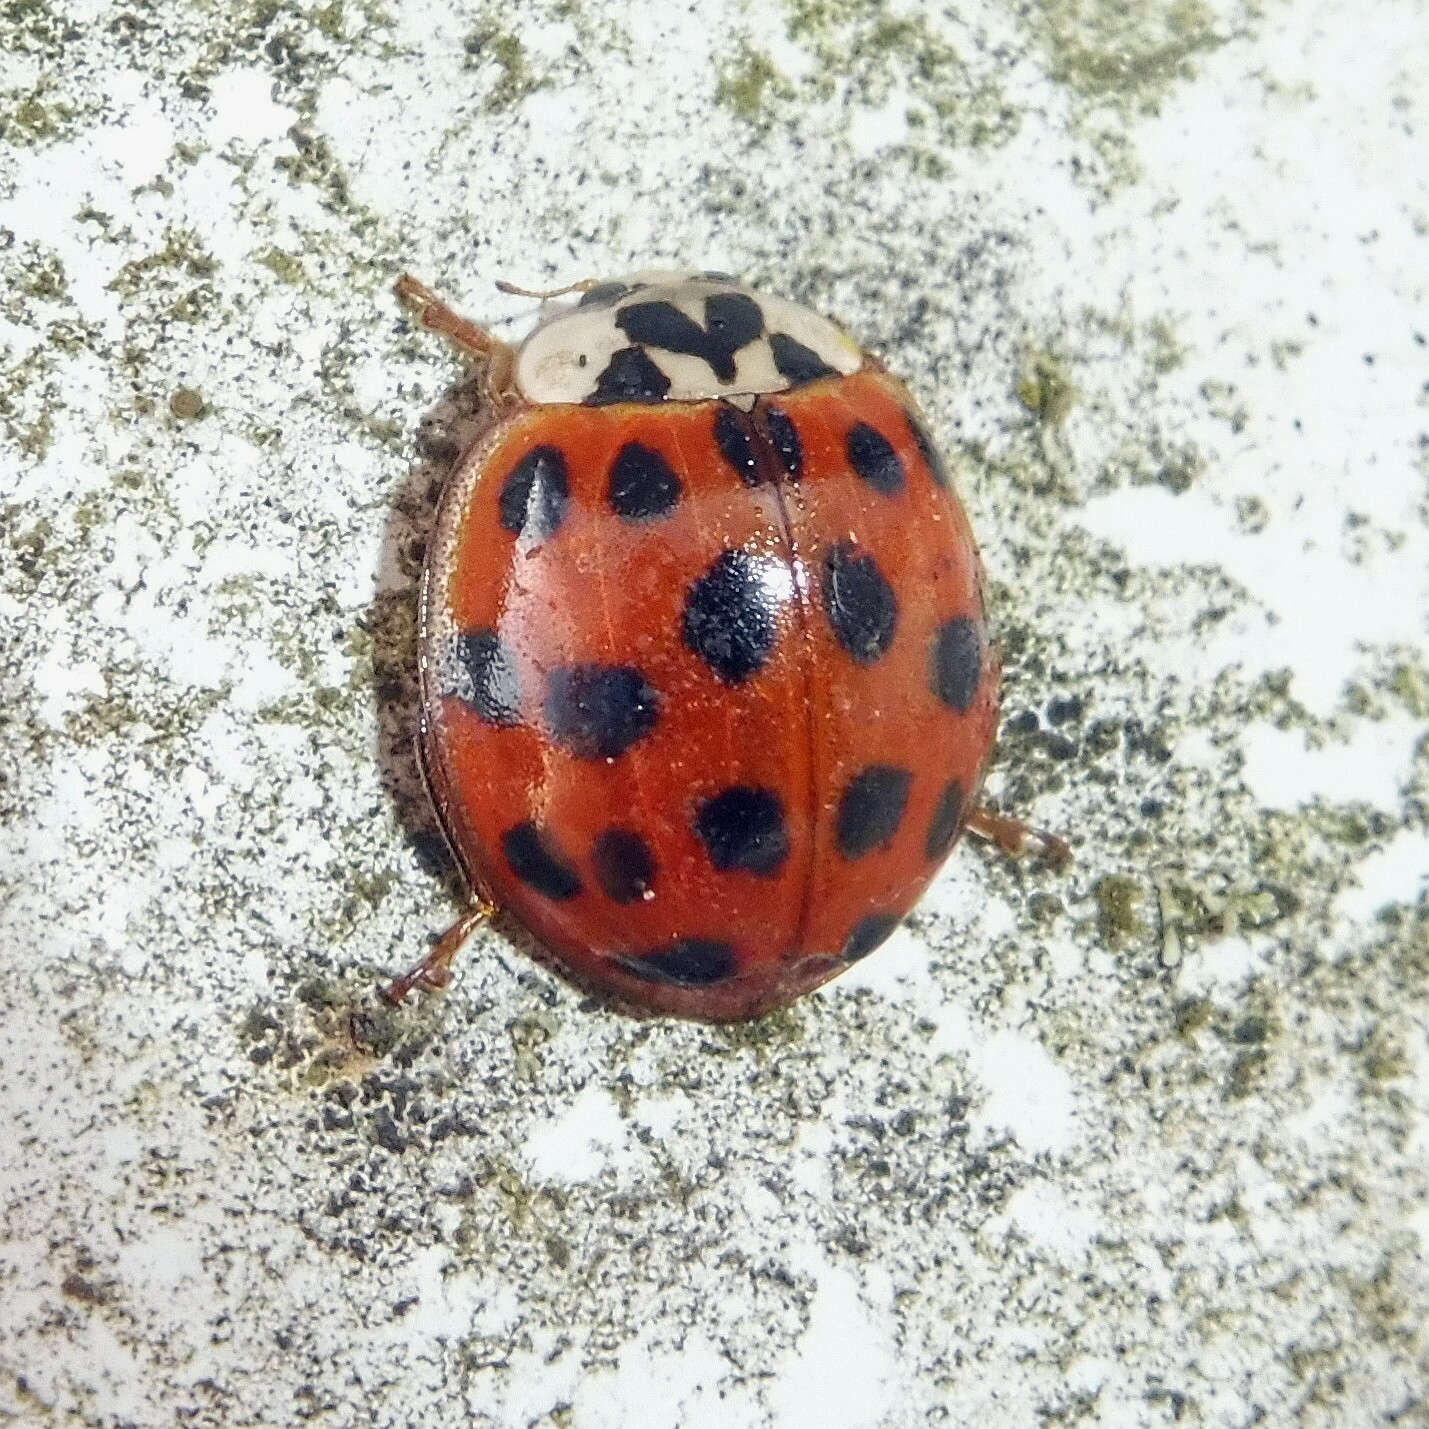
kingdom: Animalia
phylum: Arthropoda
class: Insecta
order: Coleoptera
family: Coccinellidae
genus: Harmonia
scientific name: Harmonia axyridis
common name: Harlequin ladybird
